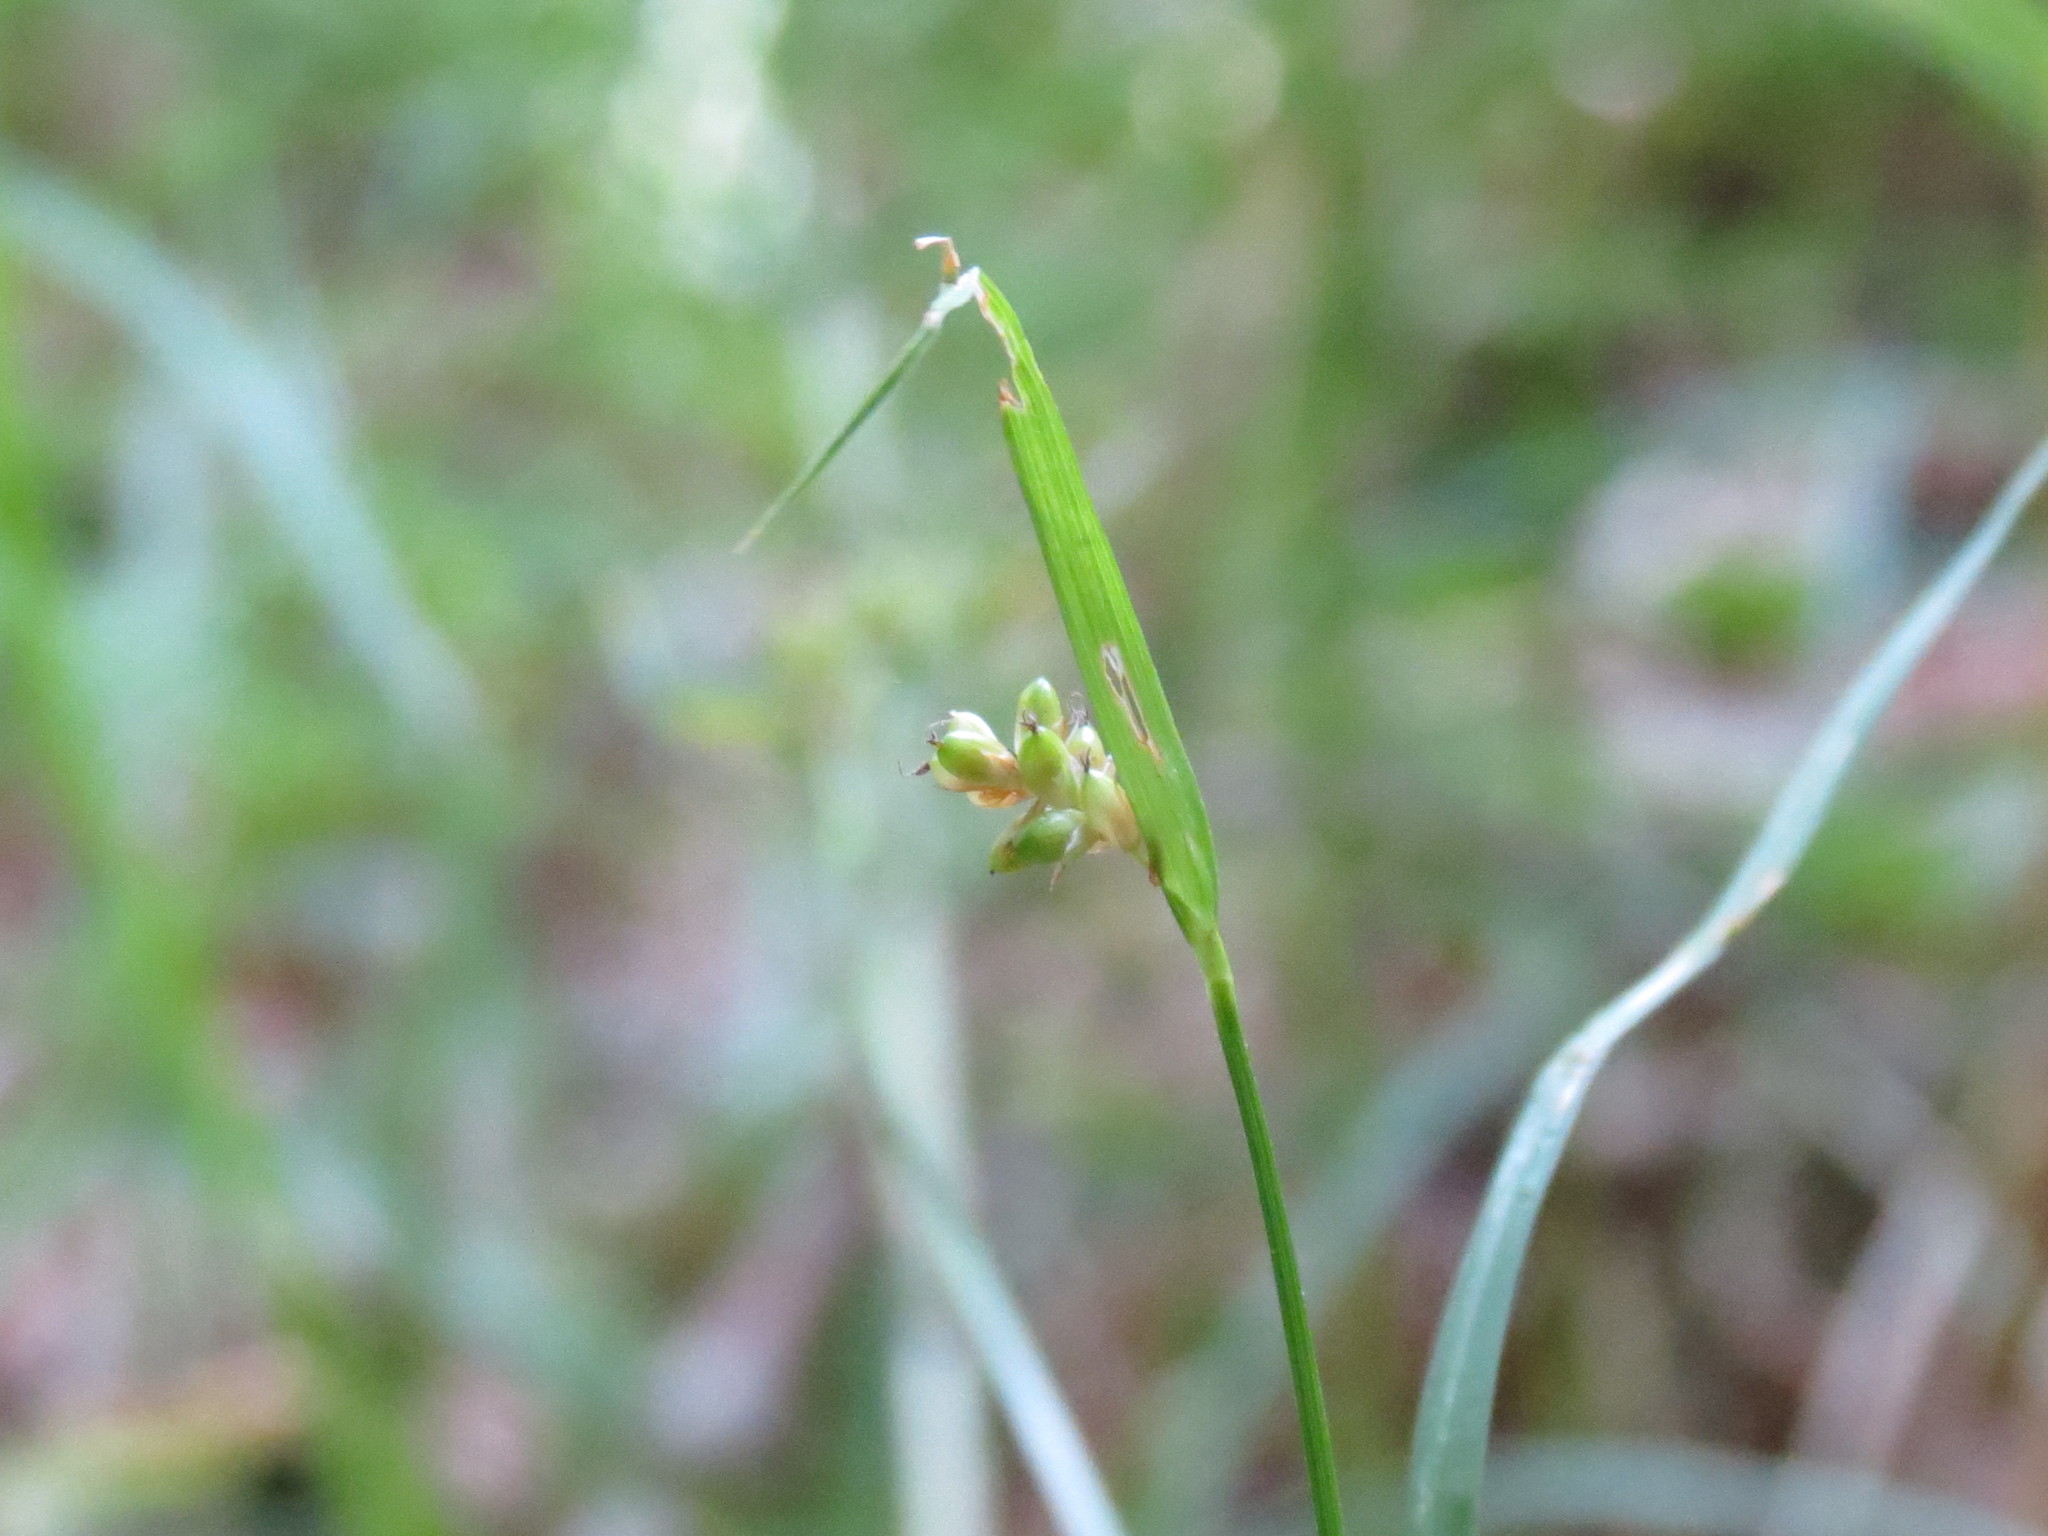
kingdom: Plantae
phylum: Tracheophyta
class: Liliopsida
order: Poales
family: Cyperaceae
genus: Carex
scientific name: Carex pallescens
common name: Pale sedge
